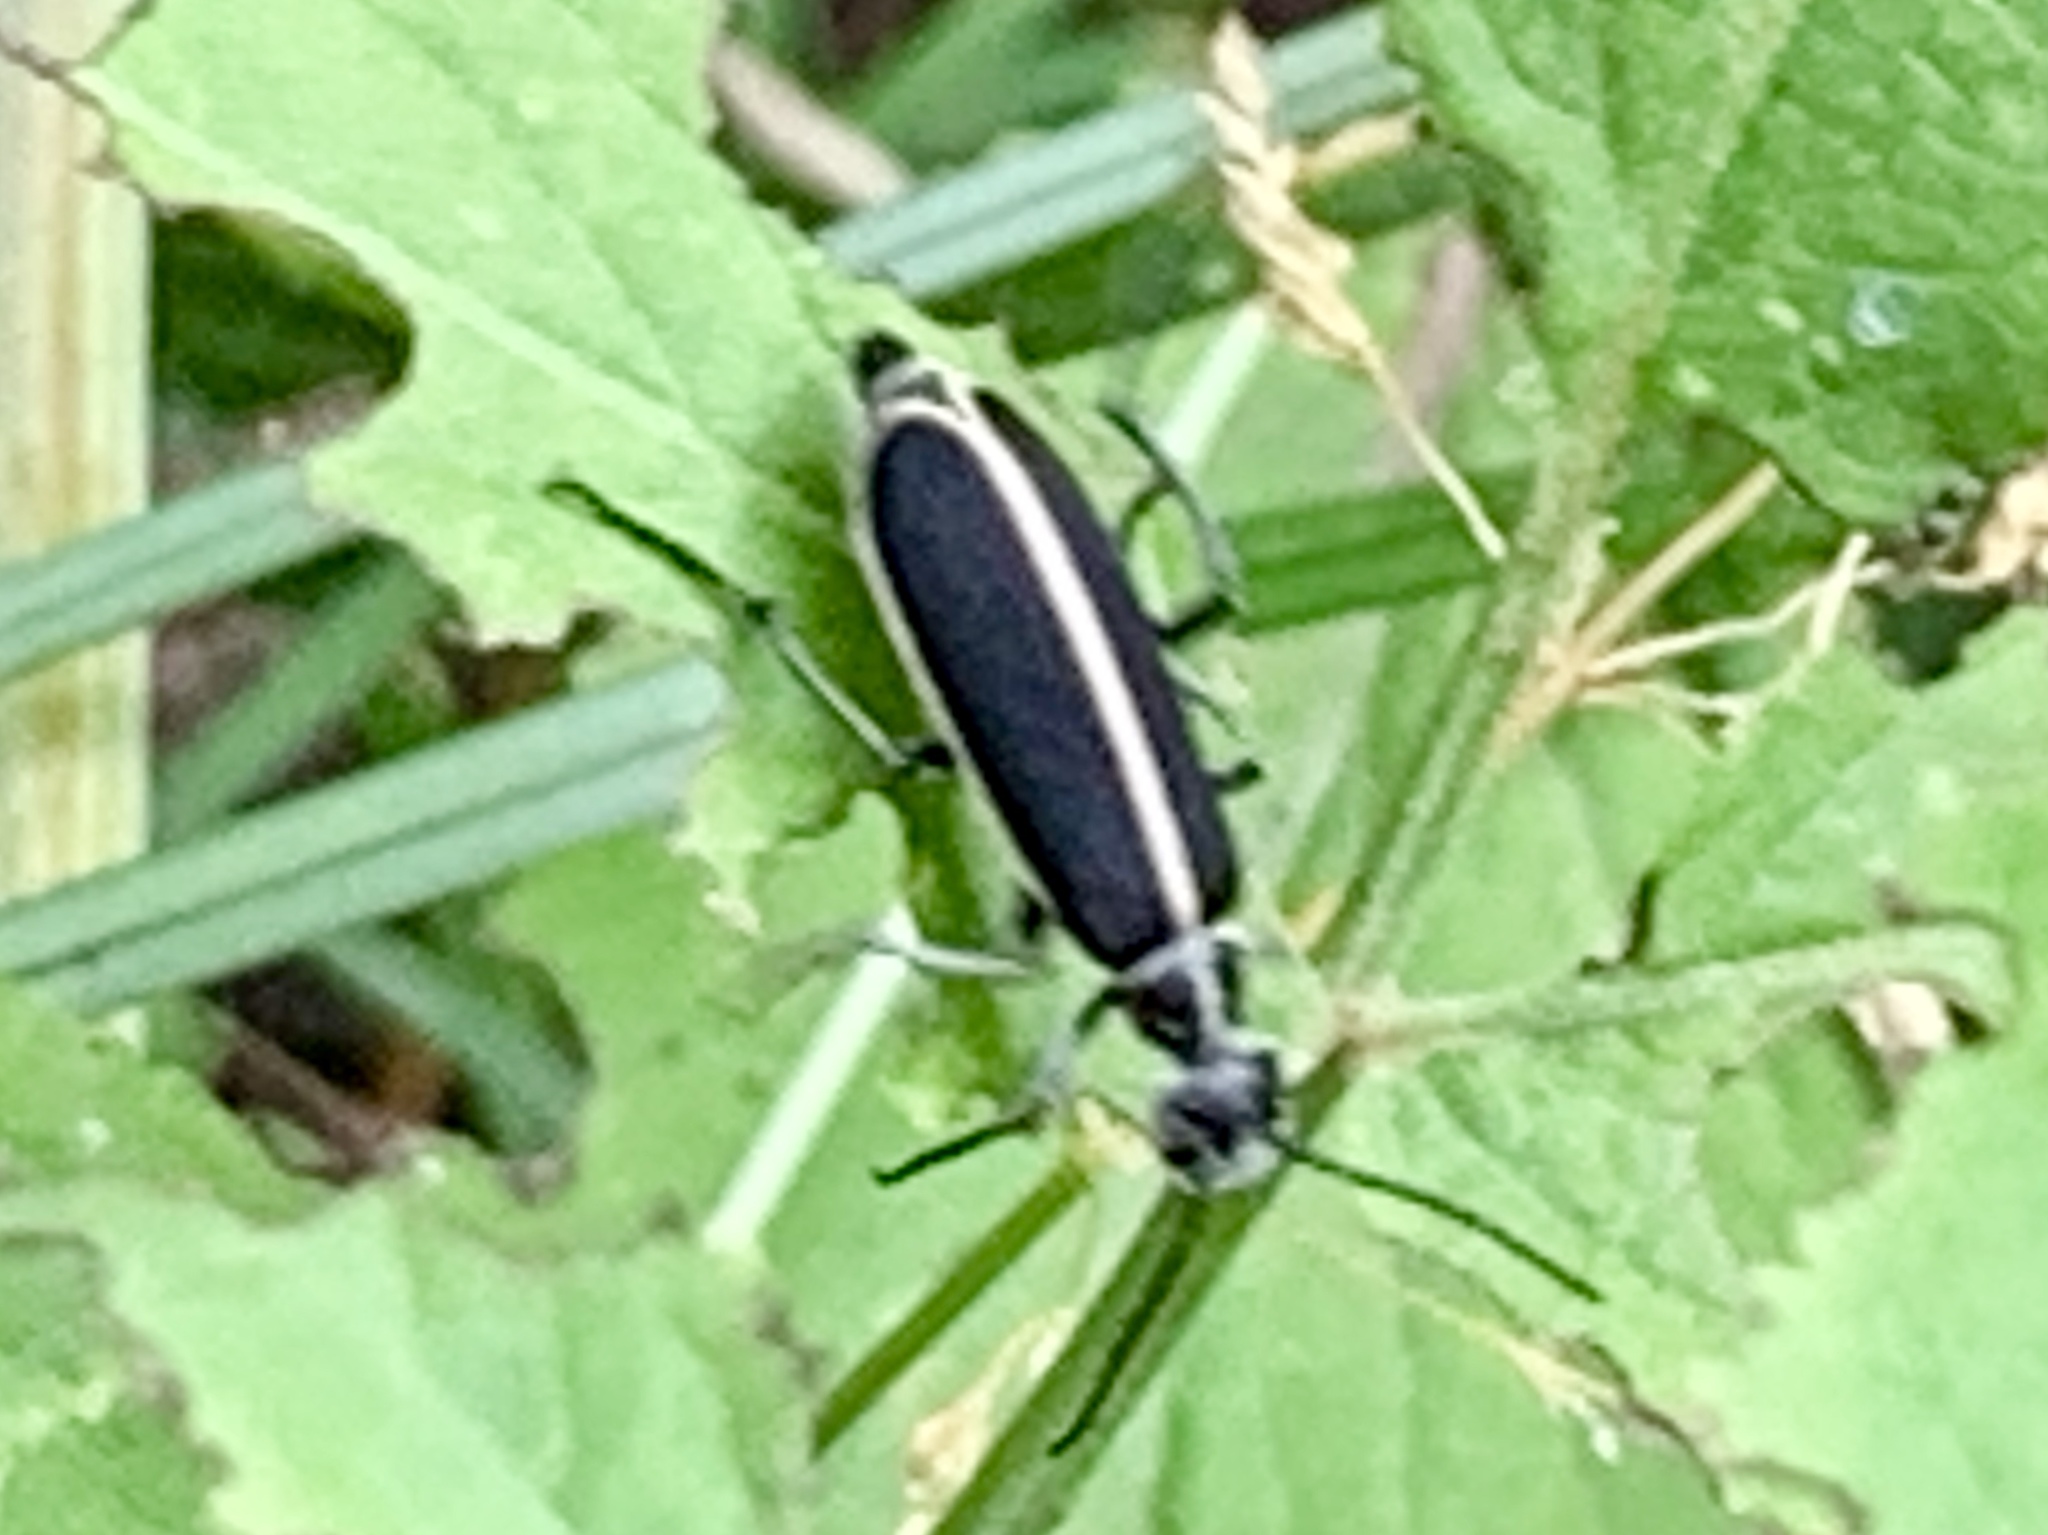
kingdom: Animalia
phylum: Arthropoda
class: Insecta
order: Coleoptera
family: Meloidae
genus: Epicauta
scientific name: Epicauta cinctipennis
